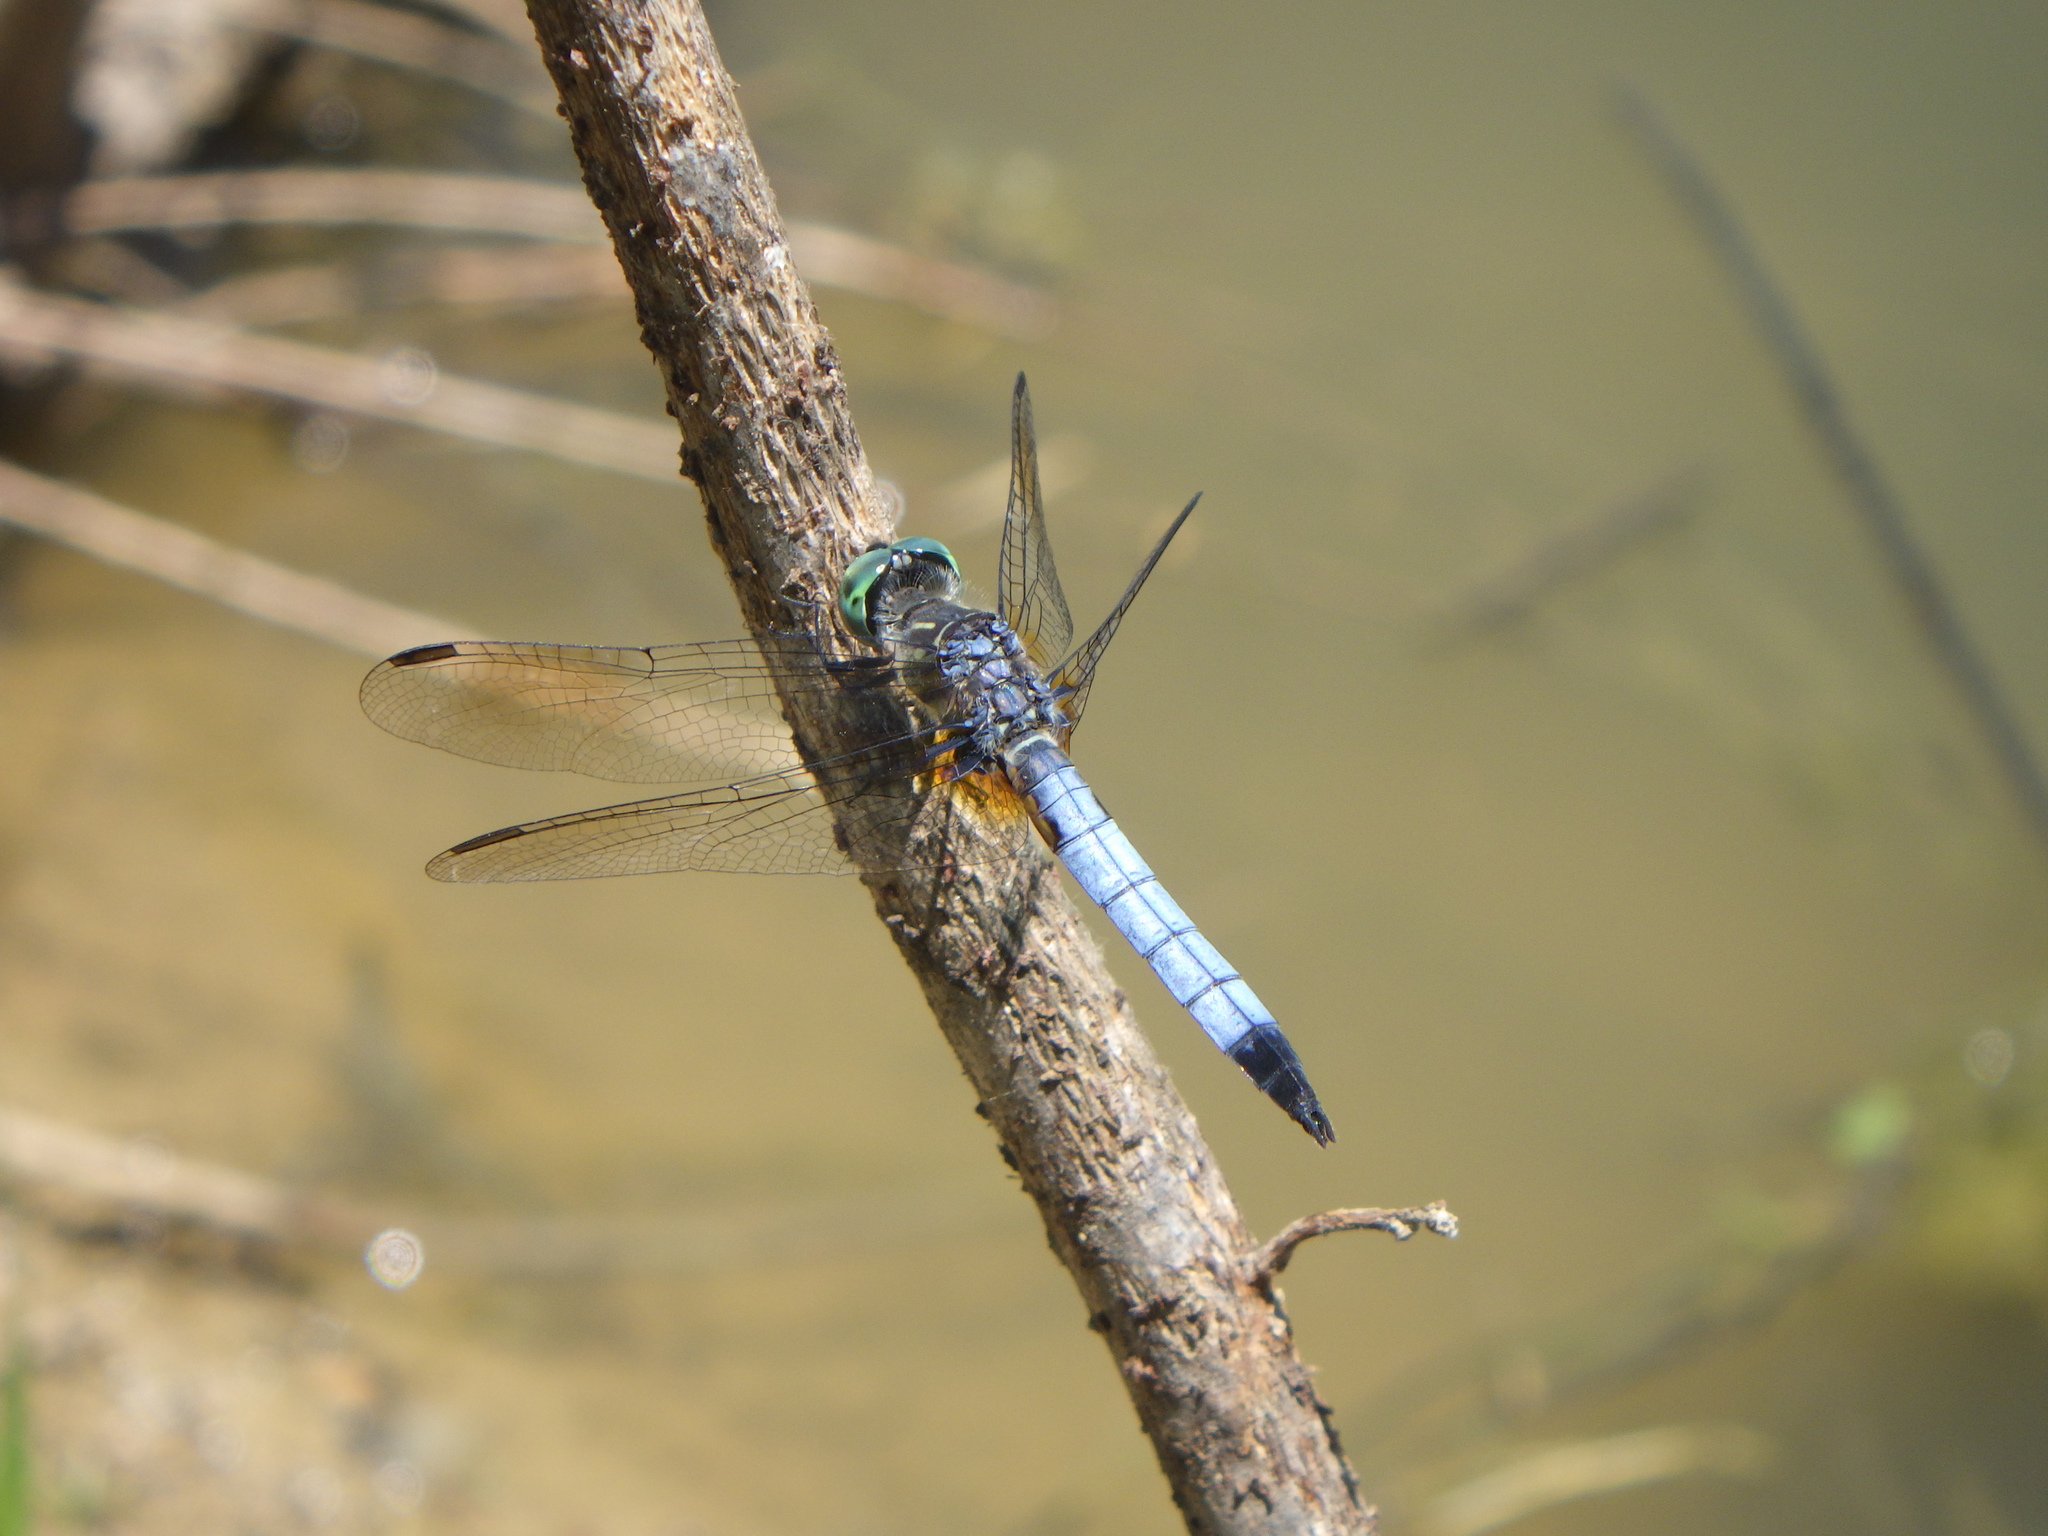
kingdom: Animalia
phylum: Arthropoda
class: Insecta
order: Odonata
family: Libellulidae
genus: Pachydiplax
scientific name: Pachydiplax longipennis
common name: Blue dasher
